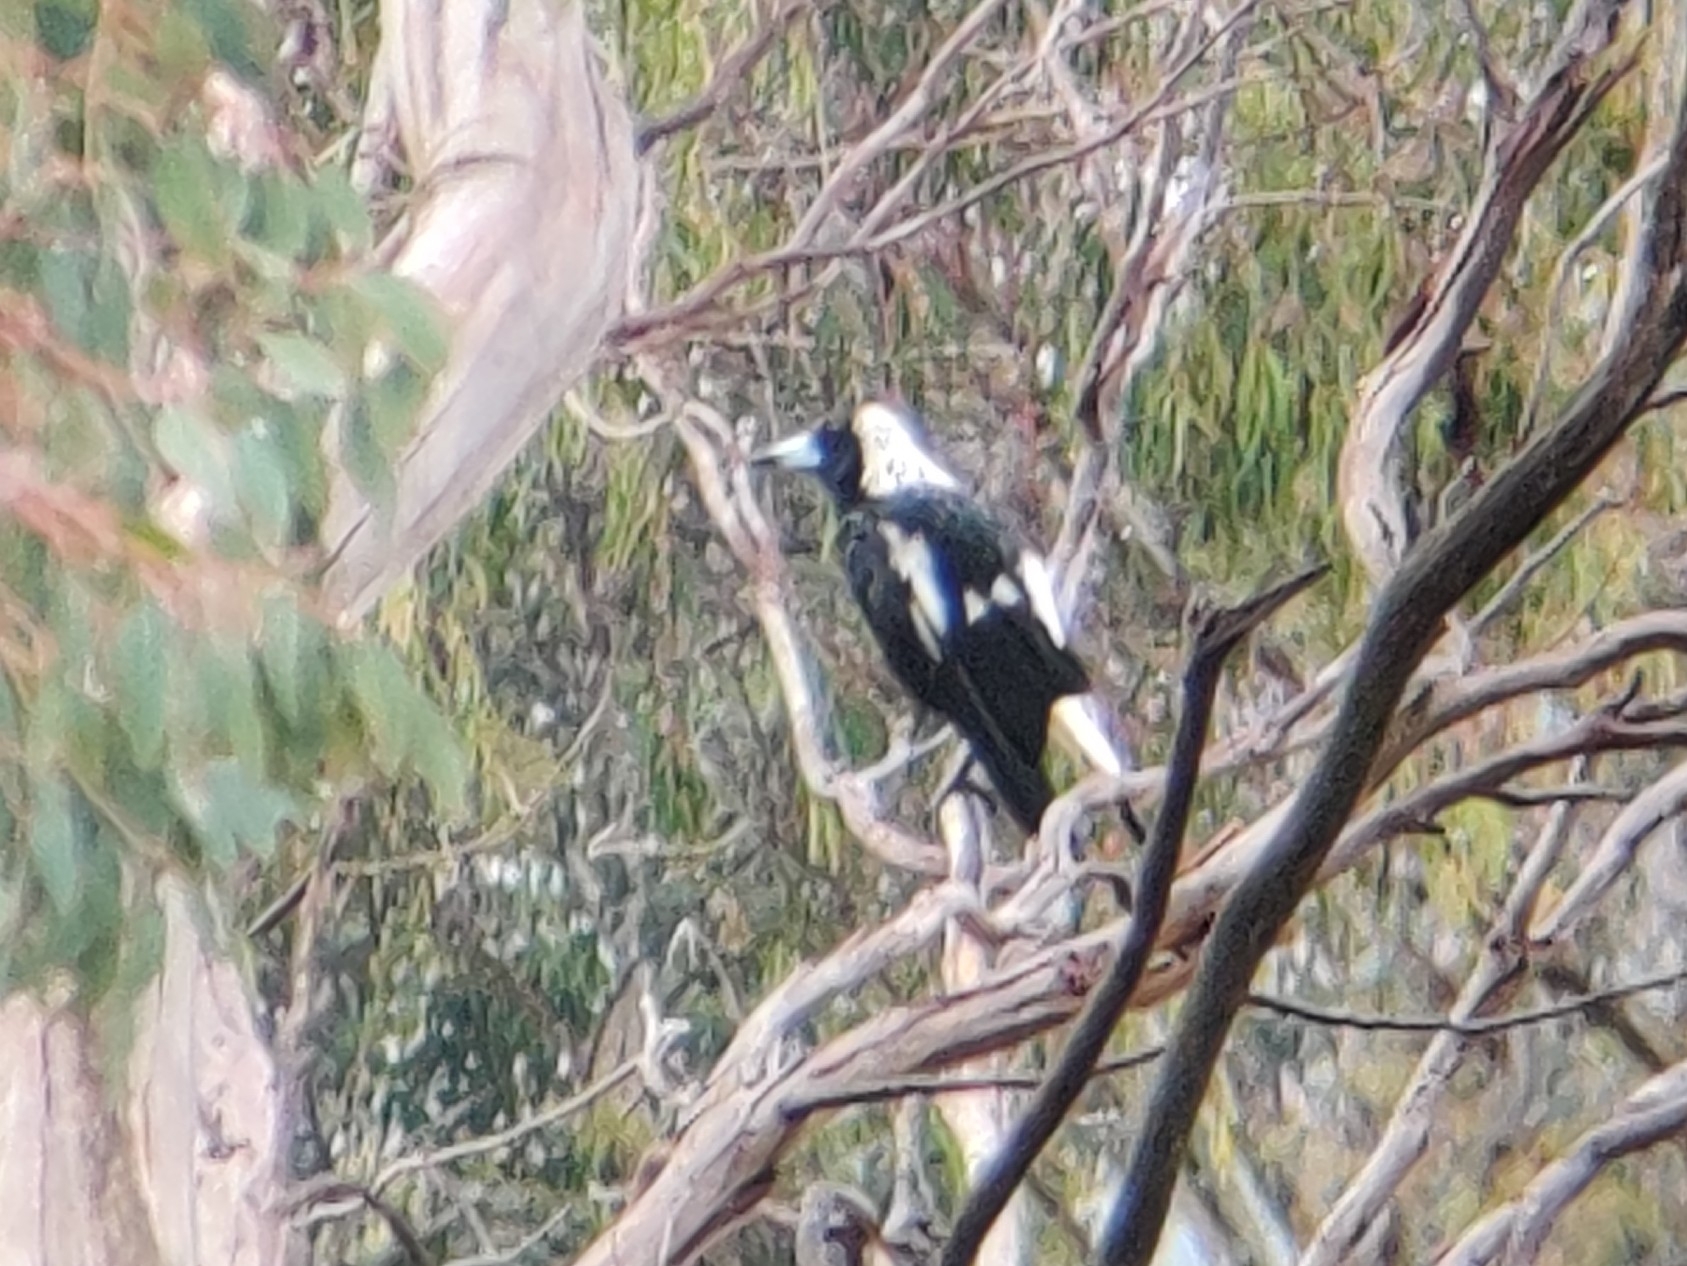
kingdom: Animalia
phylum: Chordata
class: Aves
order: Passeriformes
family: Cracticidae
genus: Gymnorhina
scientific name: Gymnorhina tibicen
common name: Australian magpie
